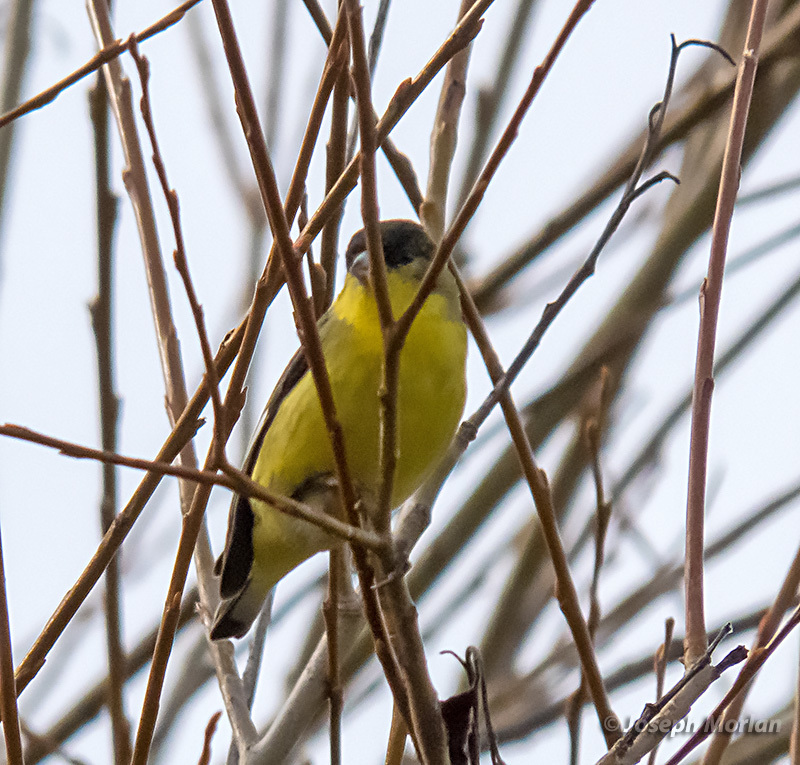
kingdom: Animalia
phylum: Chordata
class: Aves
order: Passeriformes
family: Fringillidae
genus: Spinus
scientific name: Spinus psaltria
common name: Lesser goldfinch
